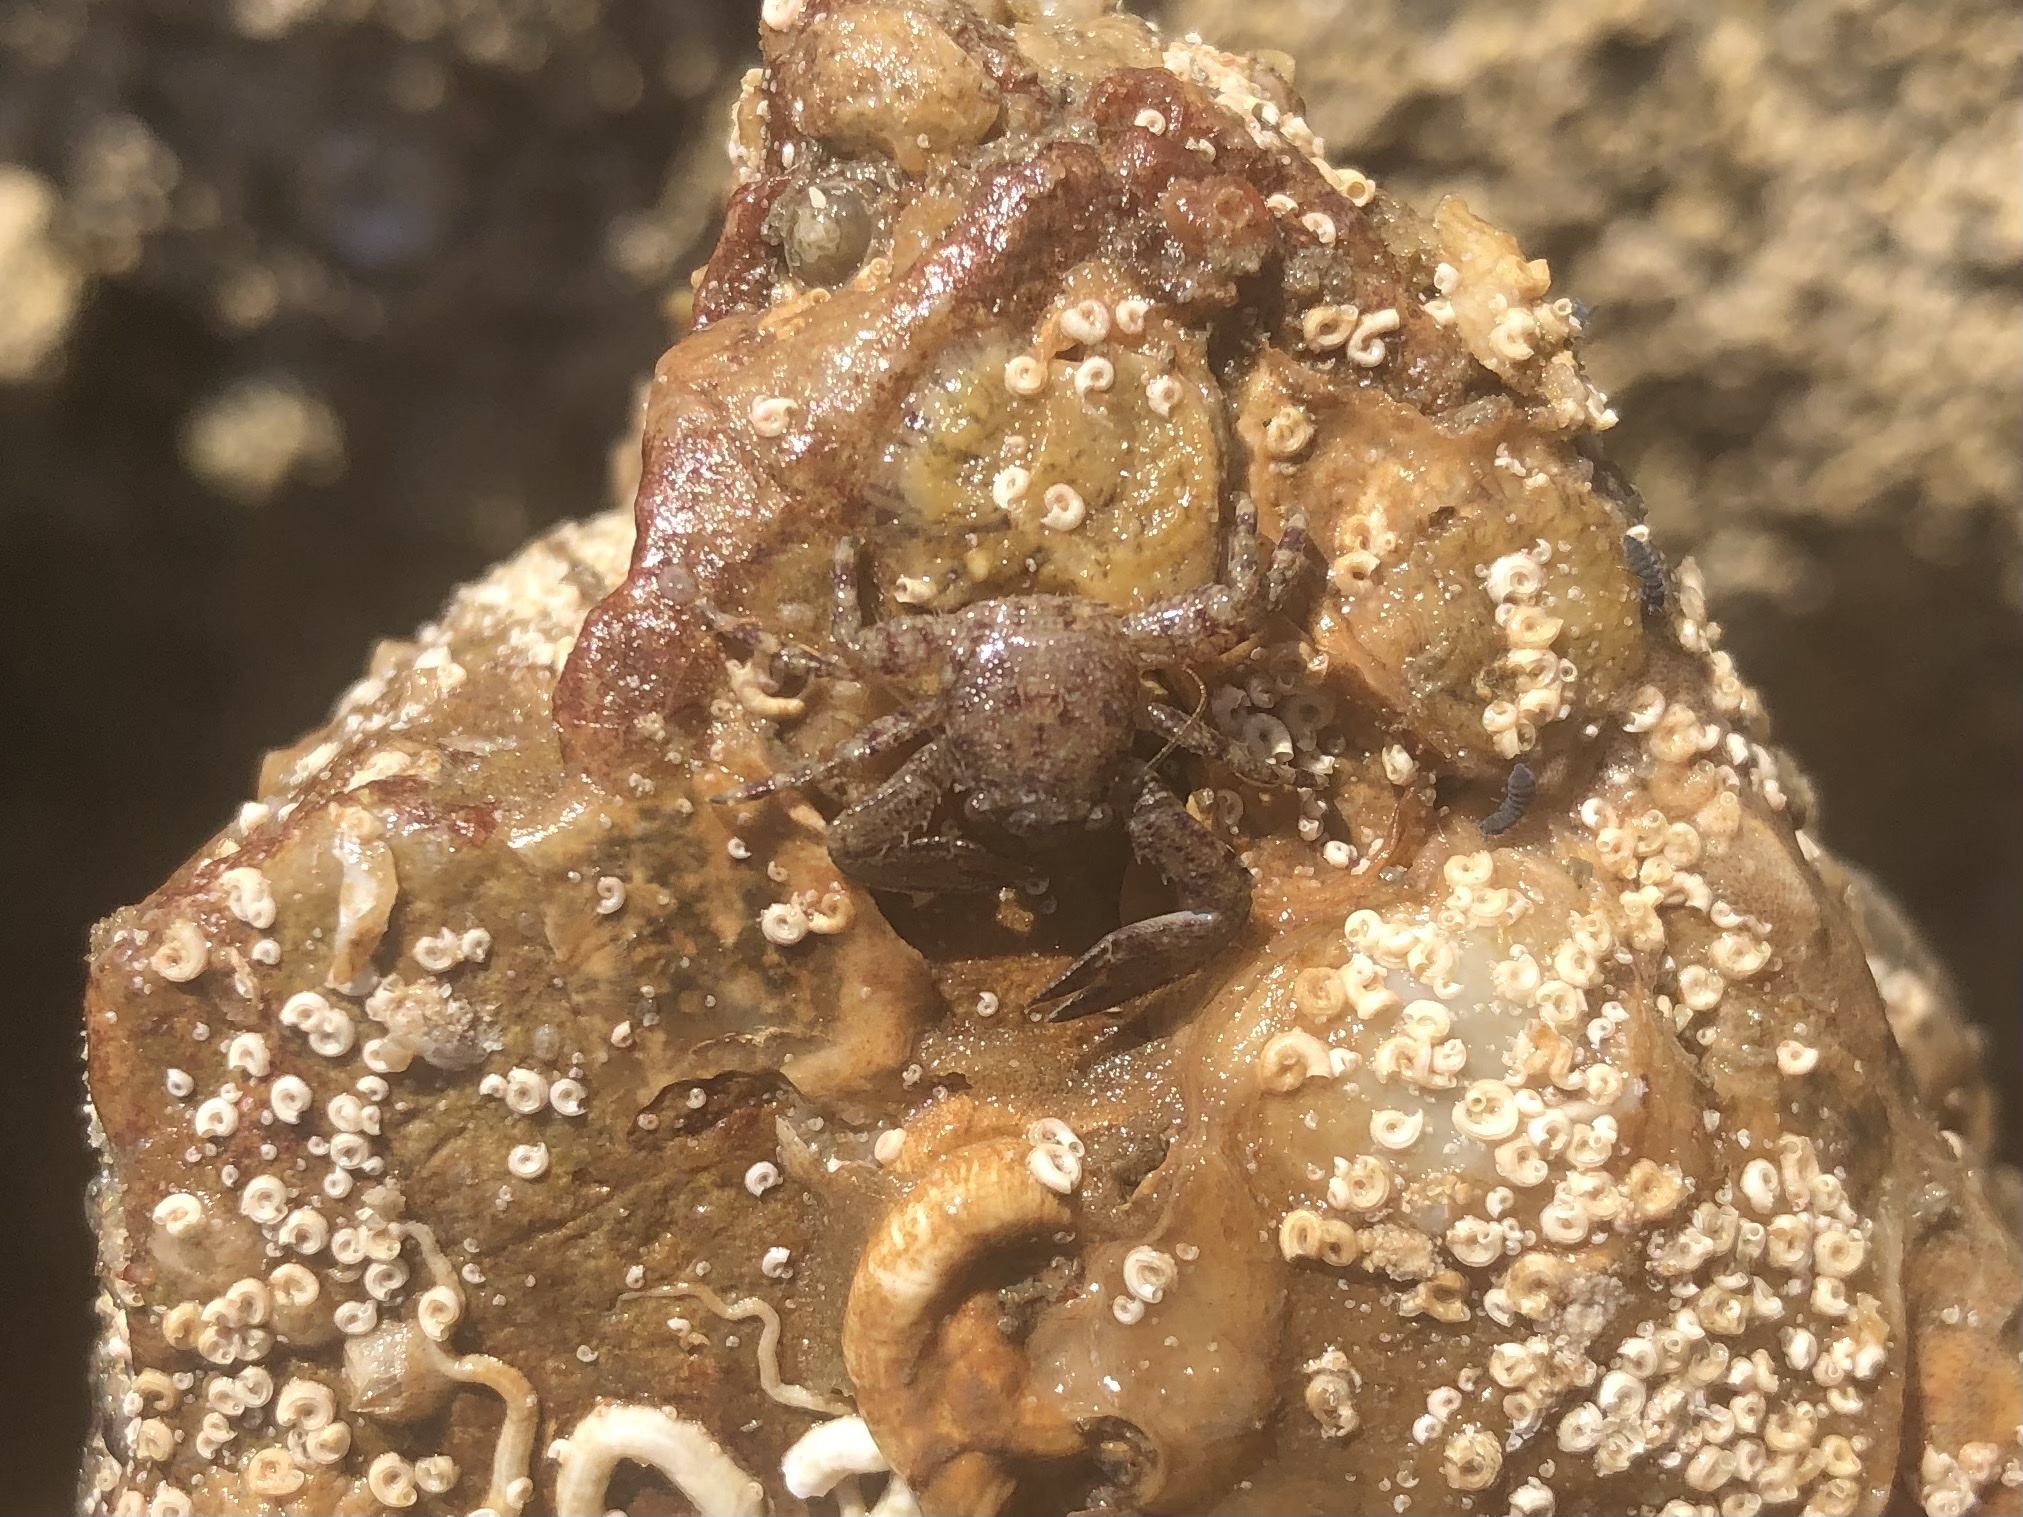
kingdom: Animalia
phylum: Arthropoda
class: Malacostraca
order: Decapoda
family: Porcellanidae
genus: Petrolisthes
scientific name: Petrolisthes armatus
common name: Green porcelain crab
